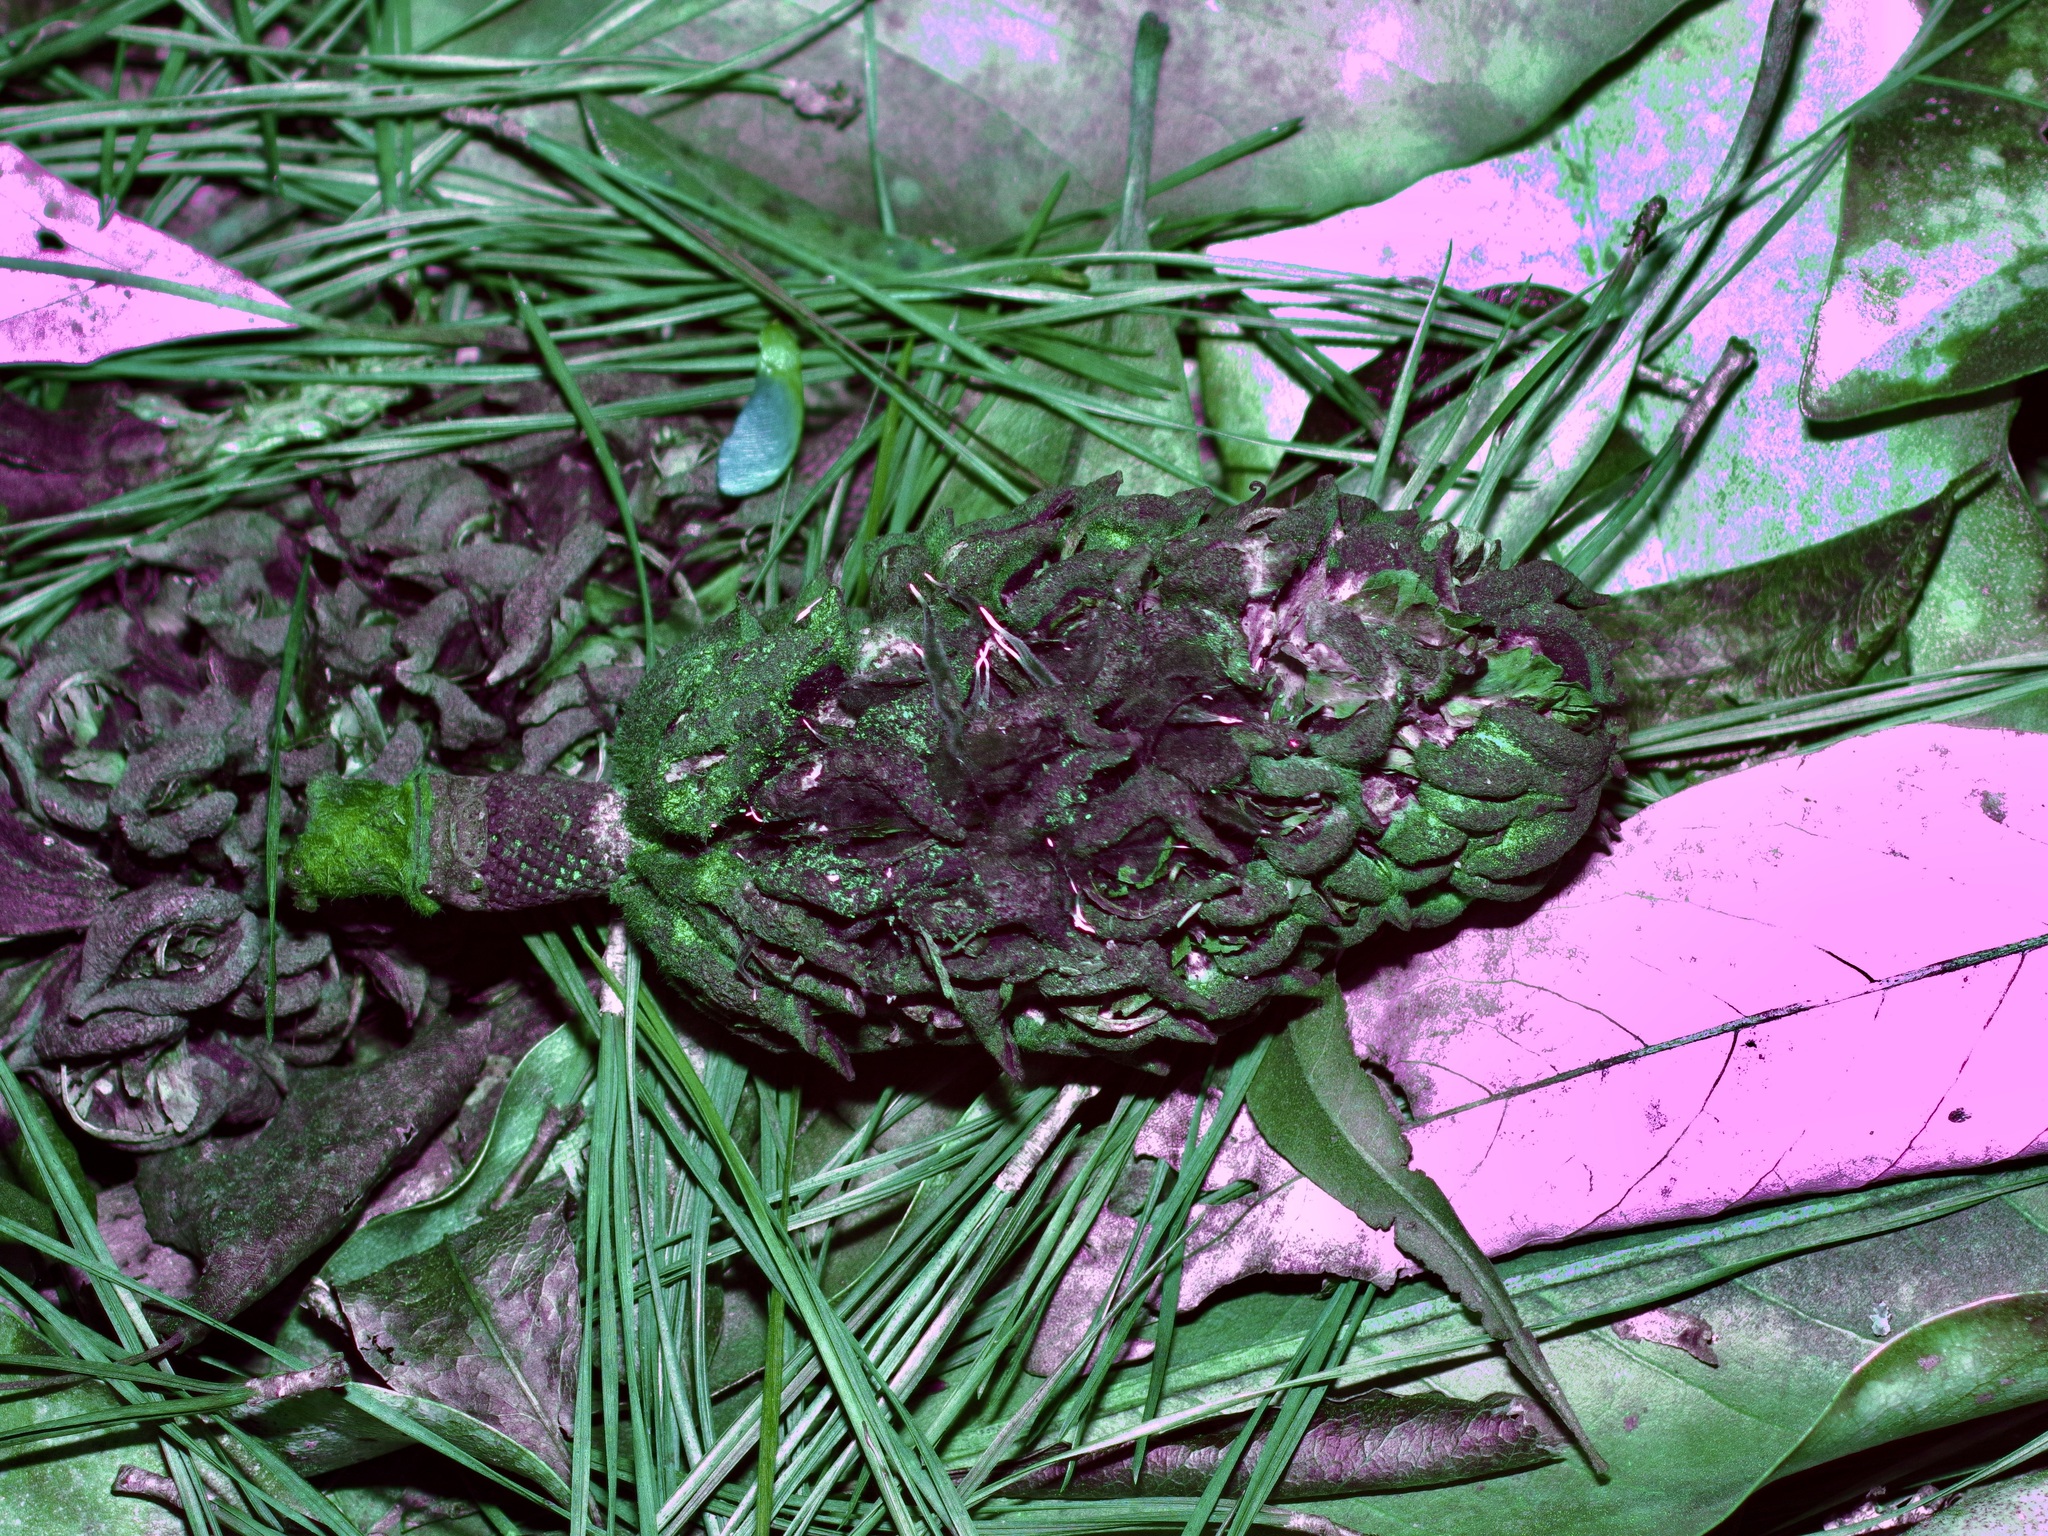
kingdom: Fungi
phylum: Ascomycota
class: Sordariomycetes
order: Xylariales
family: Xylariaceae
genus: Xylaria
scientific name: Xylaria magnoliae
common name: Magnolia-cone xylaria
